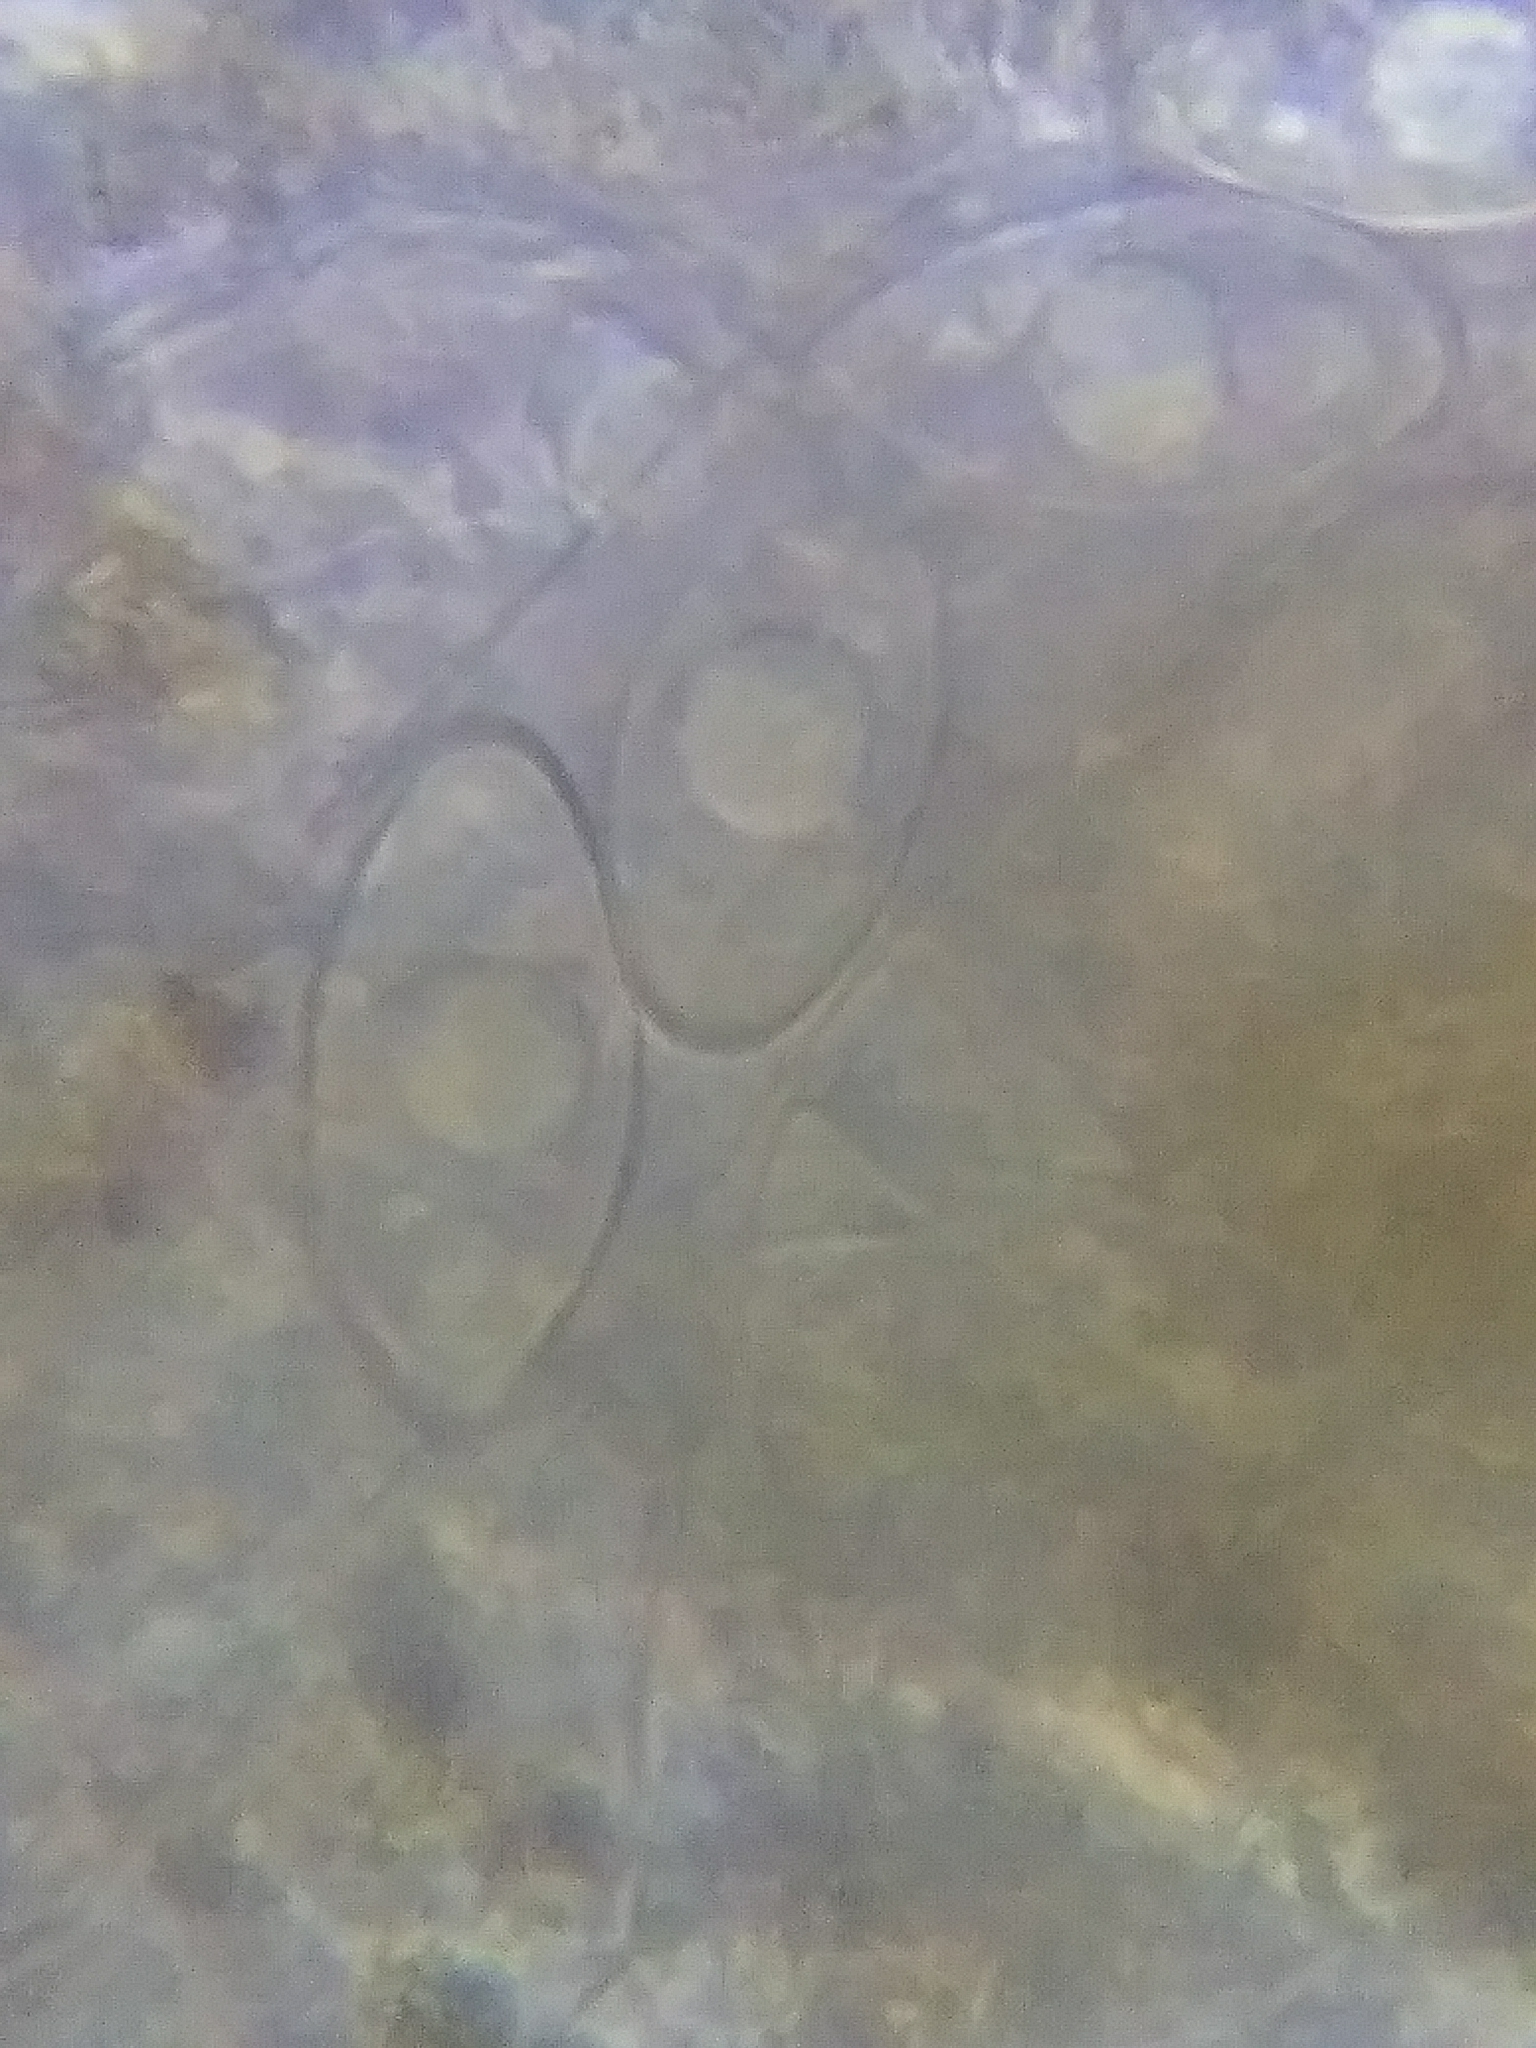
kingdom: Fungi
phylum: Ascomycota
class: Pezizomycetes
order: Pezizales
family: Discinaceae
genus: Gyromitra
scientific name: Gyromitra korfii
